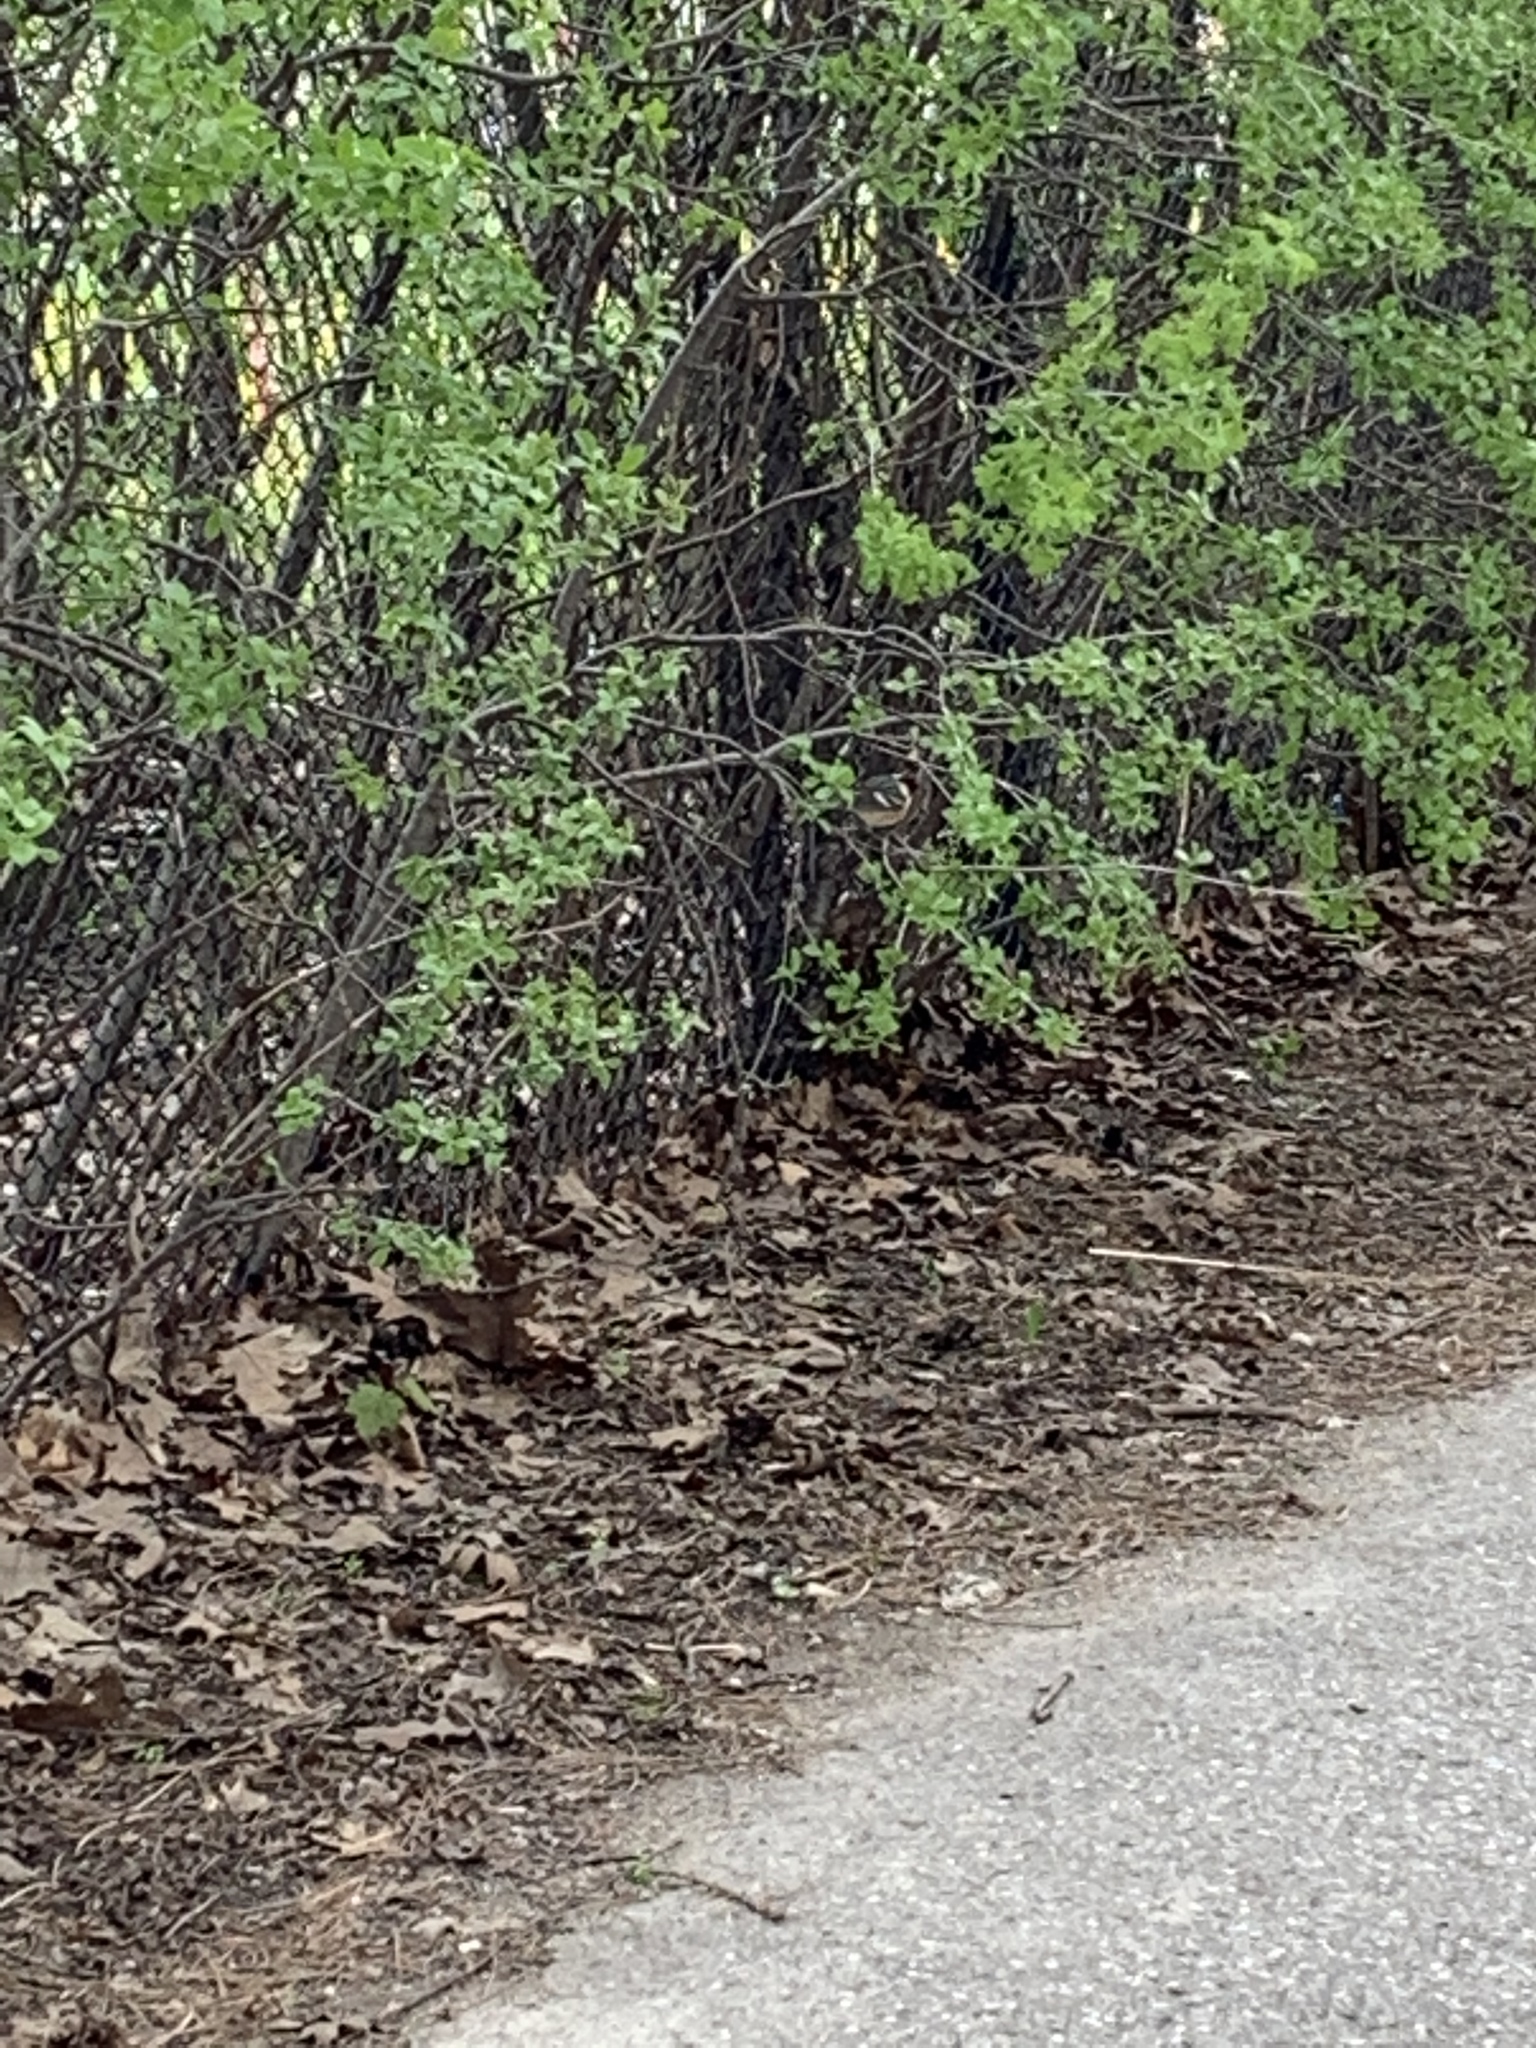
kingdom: Animalia
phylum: Chordata
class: Aves
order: Passeriformes
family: Parulidae
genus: Setophaga
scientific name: Setophaga fusca
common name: Blackburnian warbler
